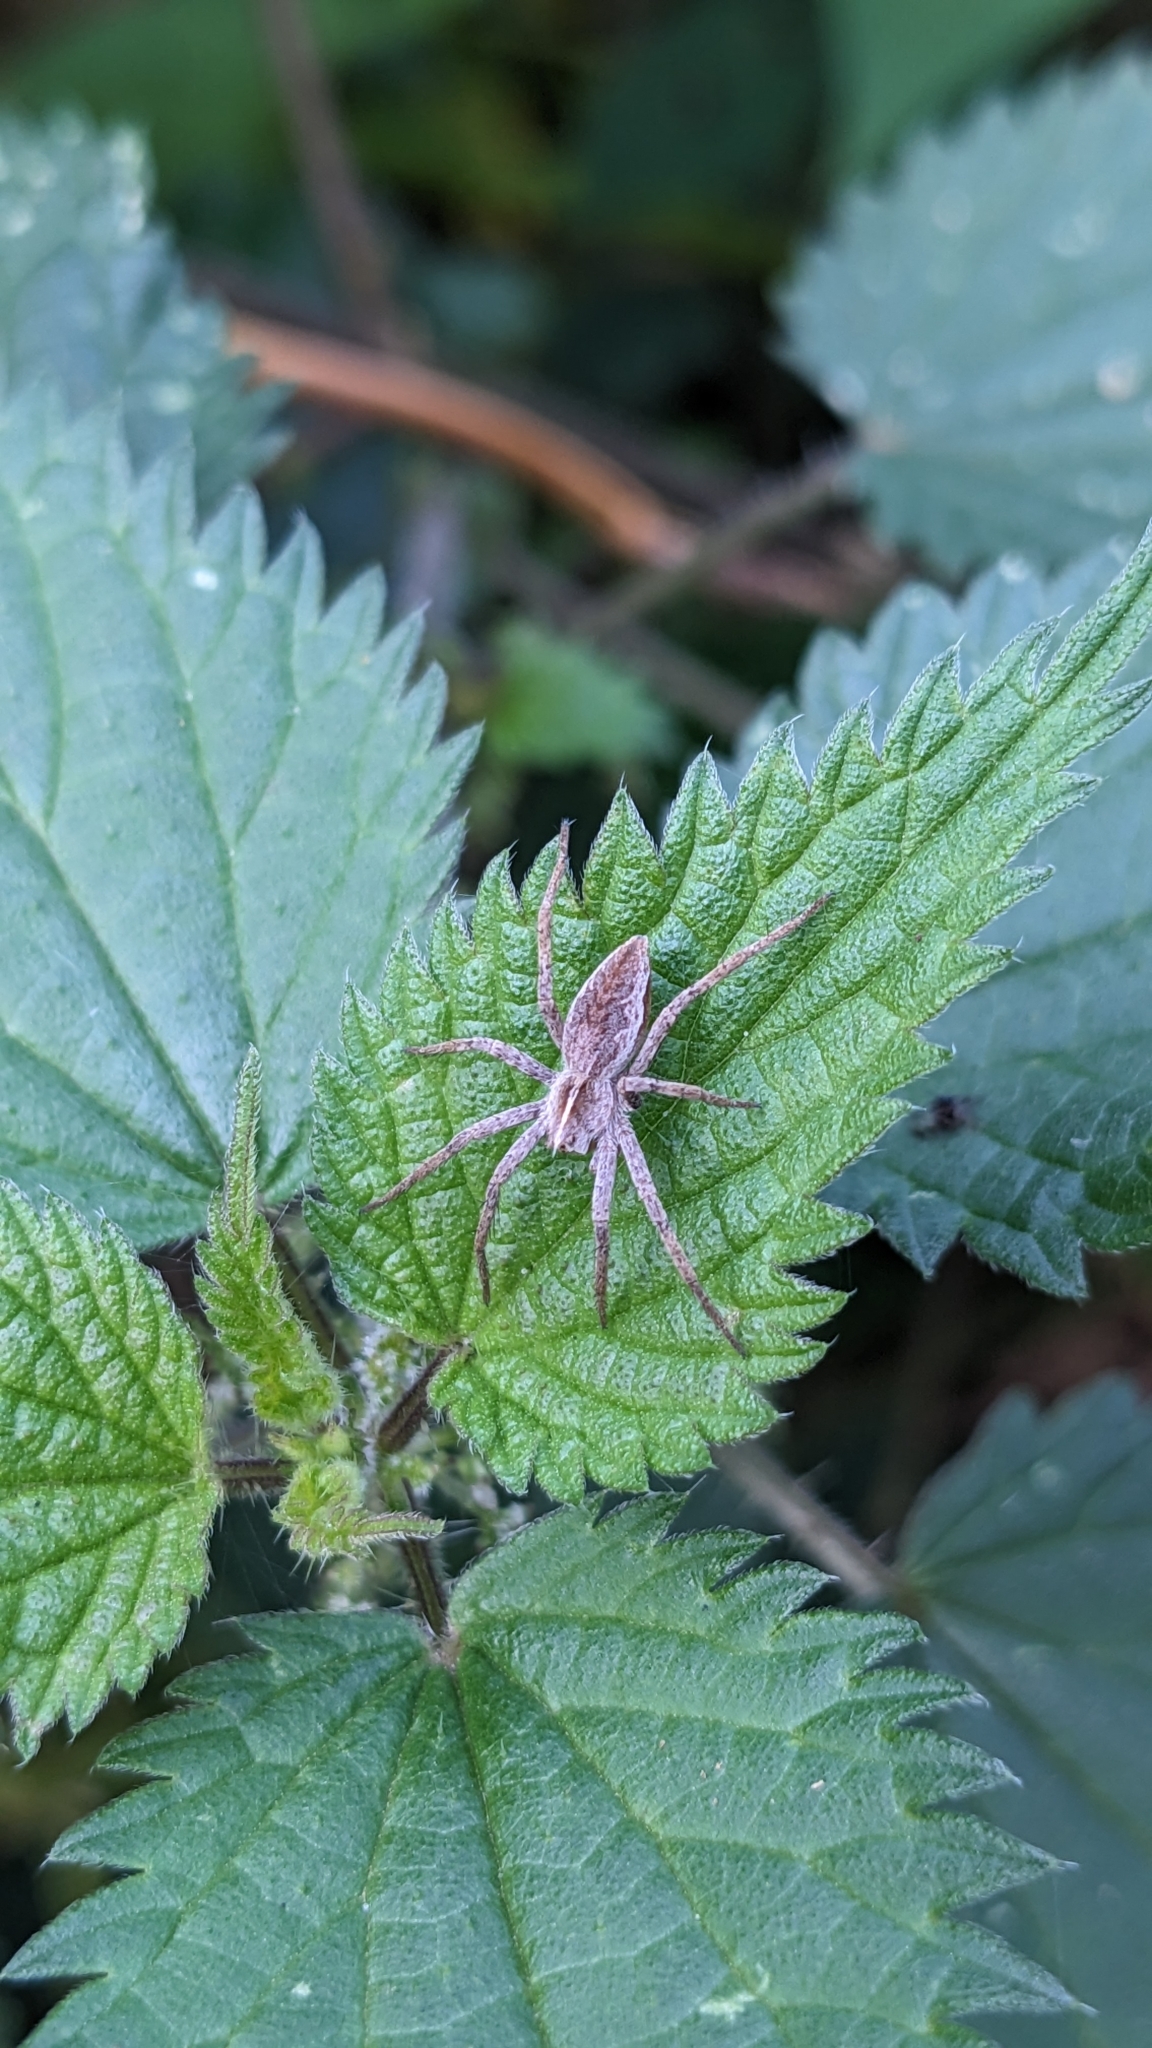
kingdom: Animalia
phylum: Arthropoda
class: Arachnida
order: Araneae
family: Pisauridae
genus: Pisaura
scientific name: Pisaura mirabilis
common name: Tent spider
